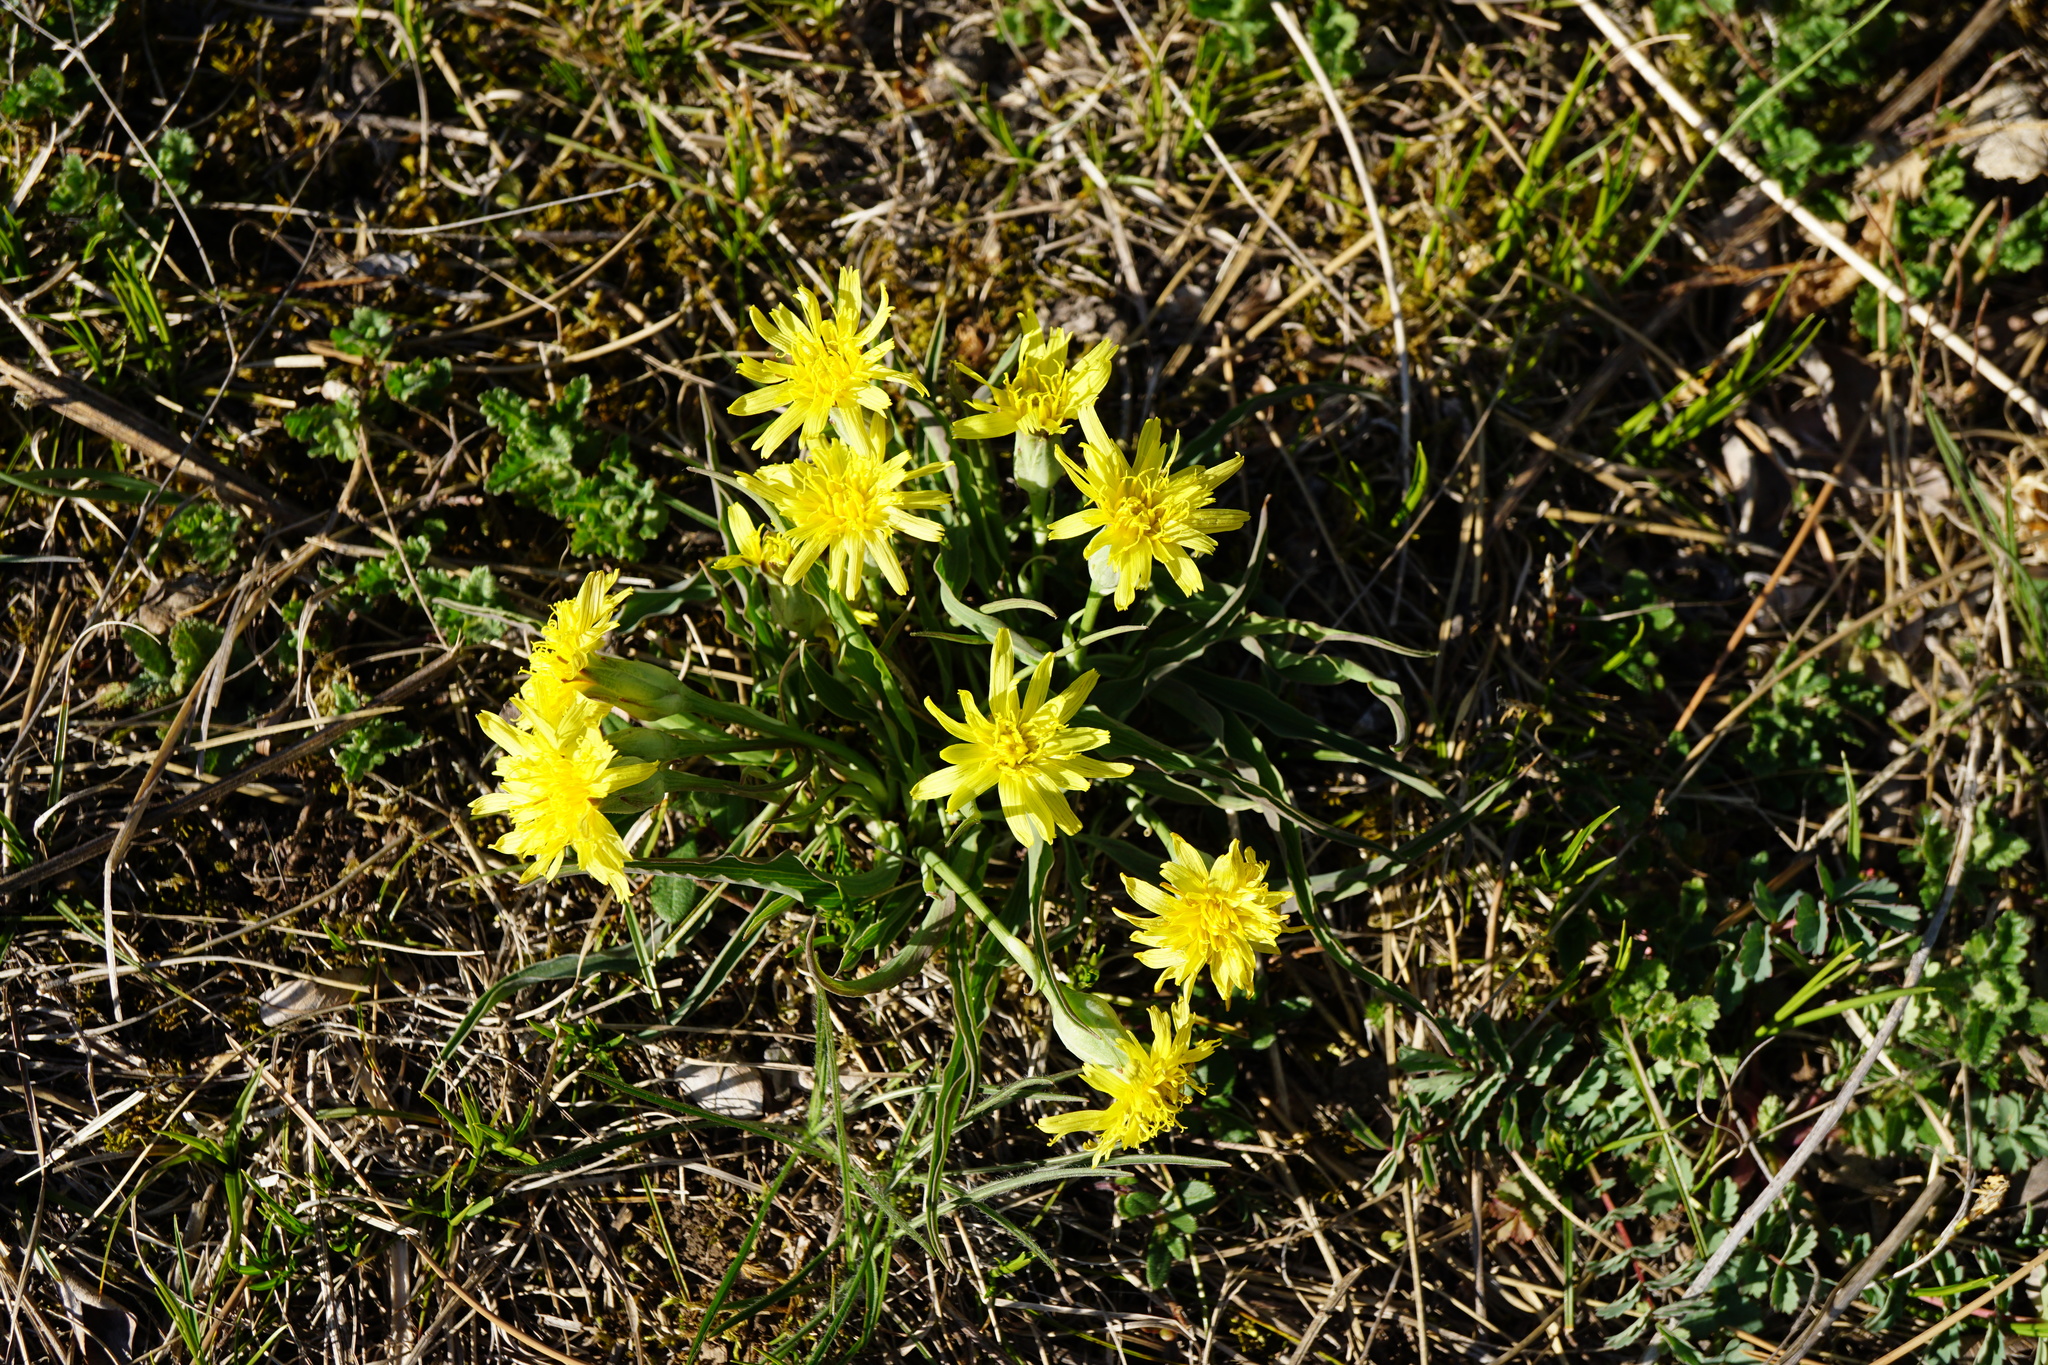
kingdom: Plantae
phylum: Tracheophyta
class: Magnoliopsida
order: Asterales
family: Asteraceae
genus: Takhtajaniantha
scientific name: Takhtajaniantha austriaca
